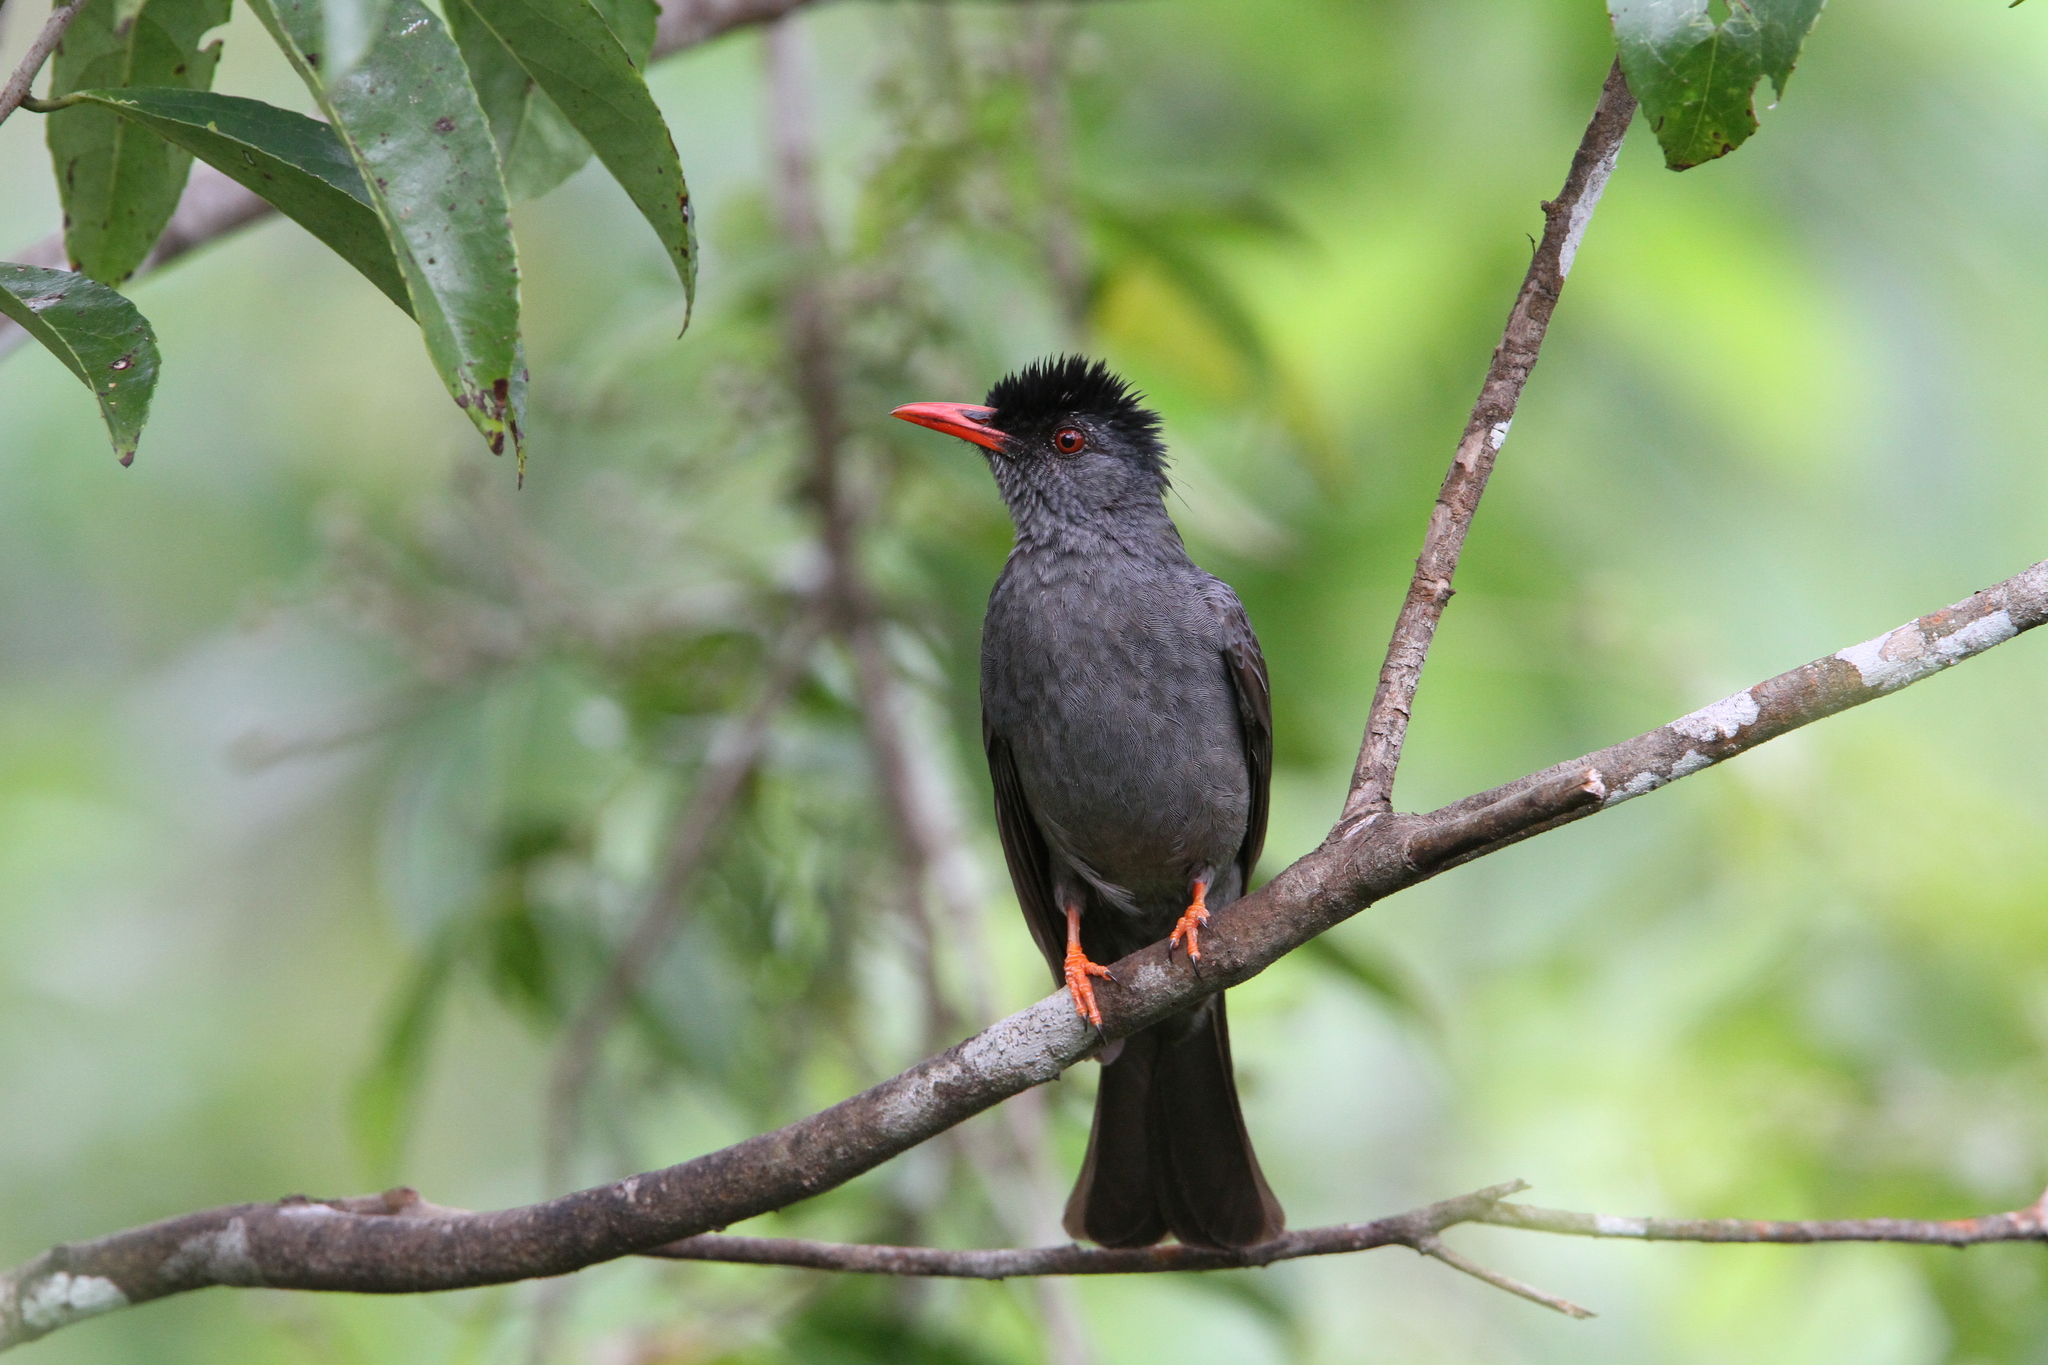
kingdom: Animalia
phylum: Chordata
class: Aves
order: Passeriformes
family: Pycnonotidae
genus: Hypsipetes
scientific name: Hypsipetes ganeesa
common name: Square-tailed bulbul
